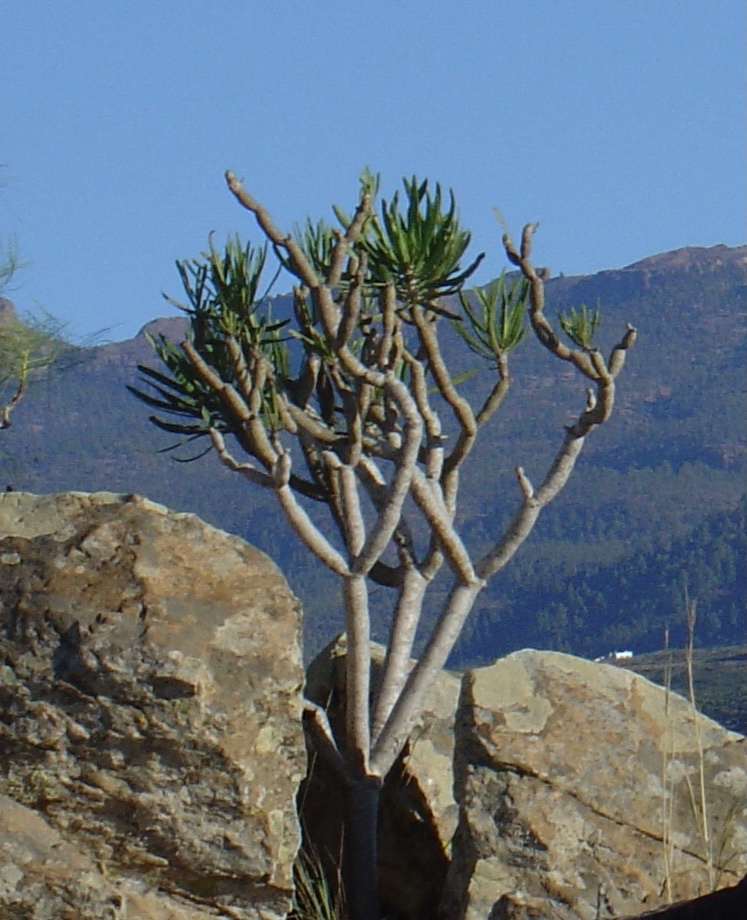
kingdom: Plantae
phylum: Tracheophyta
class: Magnoliopsida
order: Asterales
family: Asteraceae
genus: Kleinia
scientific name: Kleinia neriifolia
